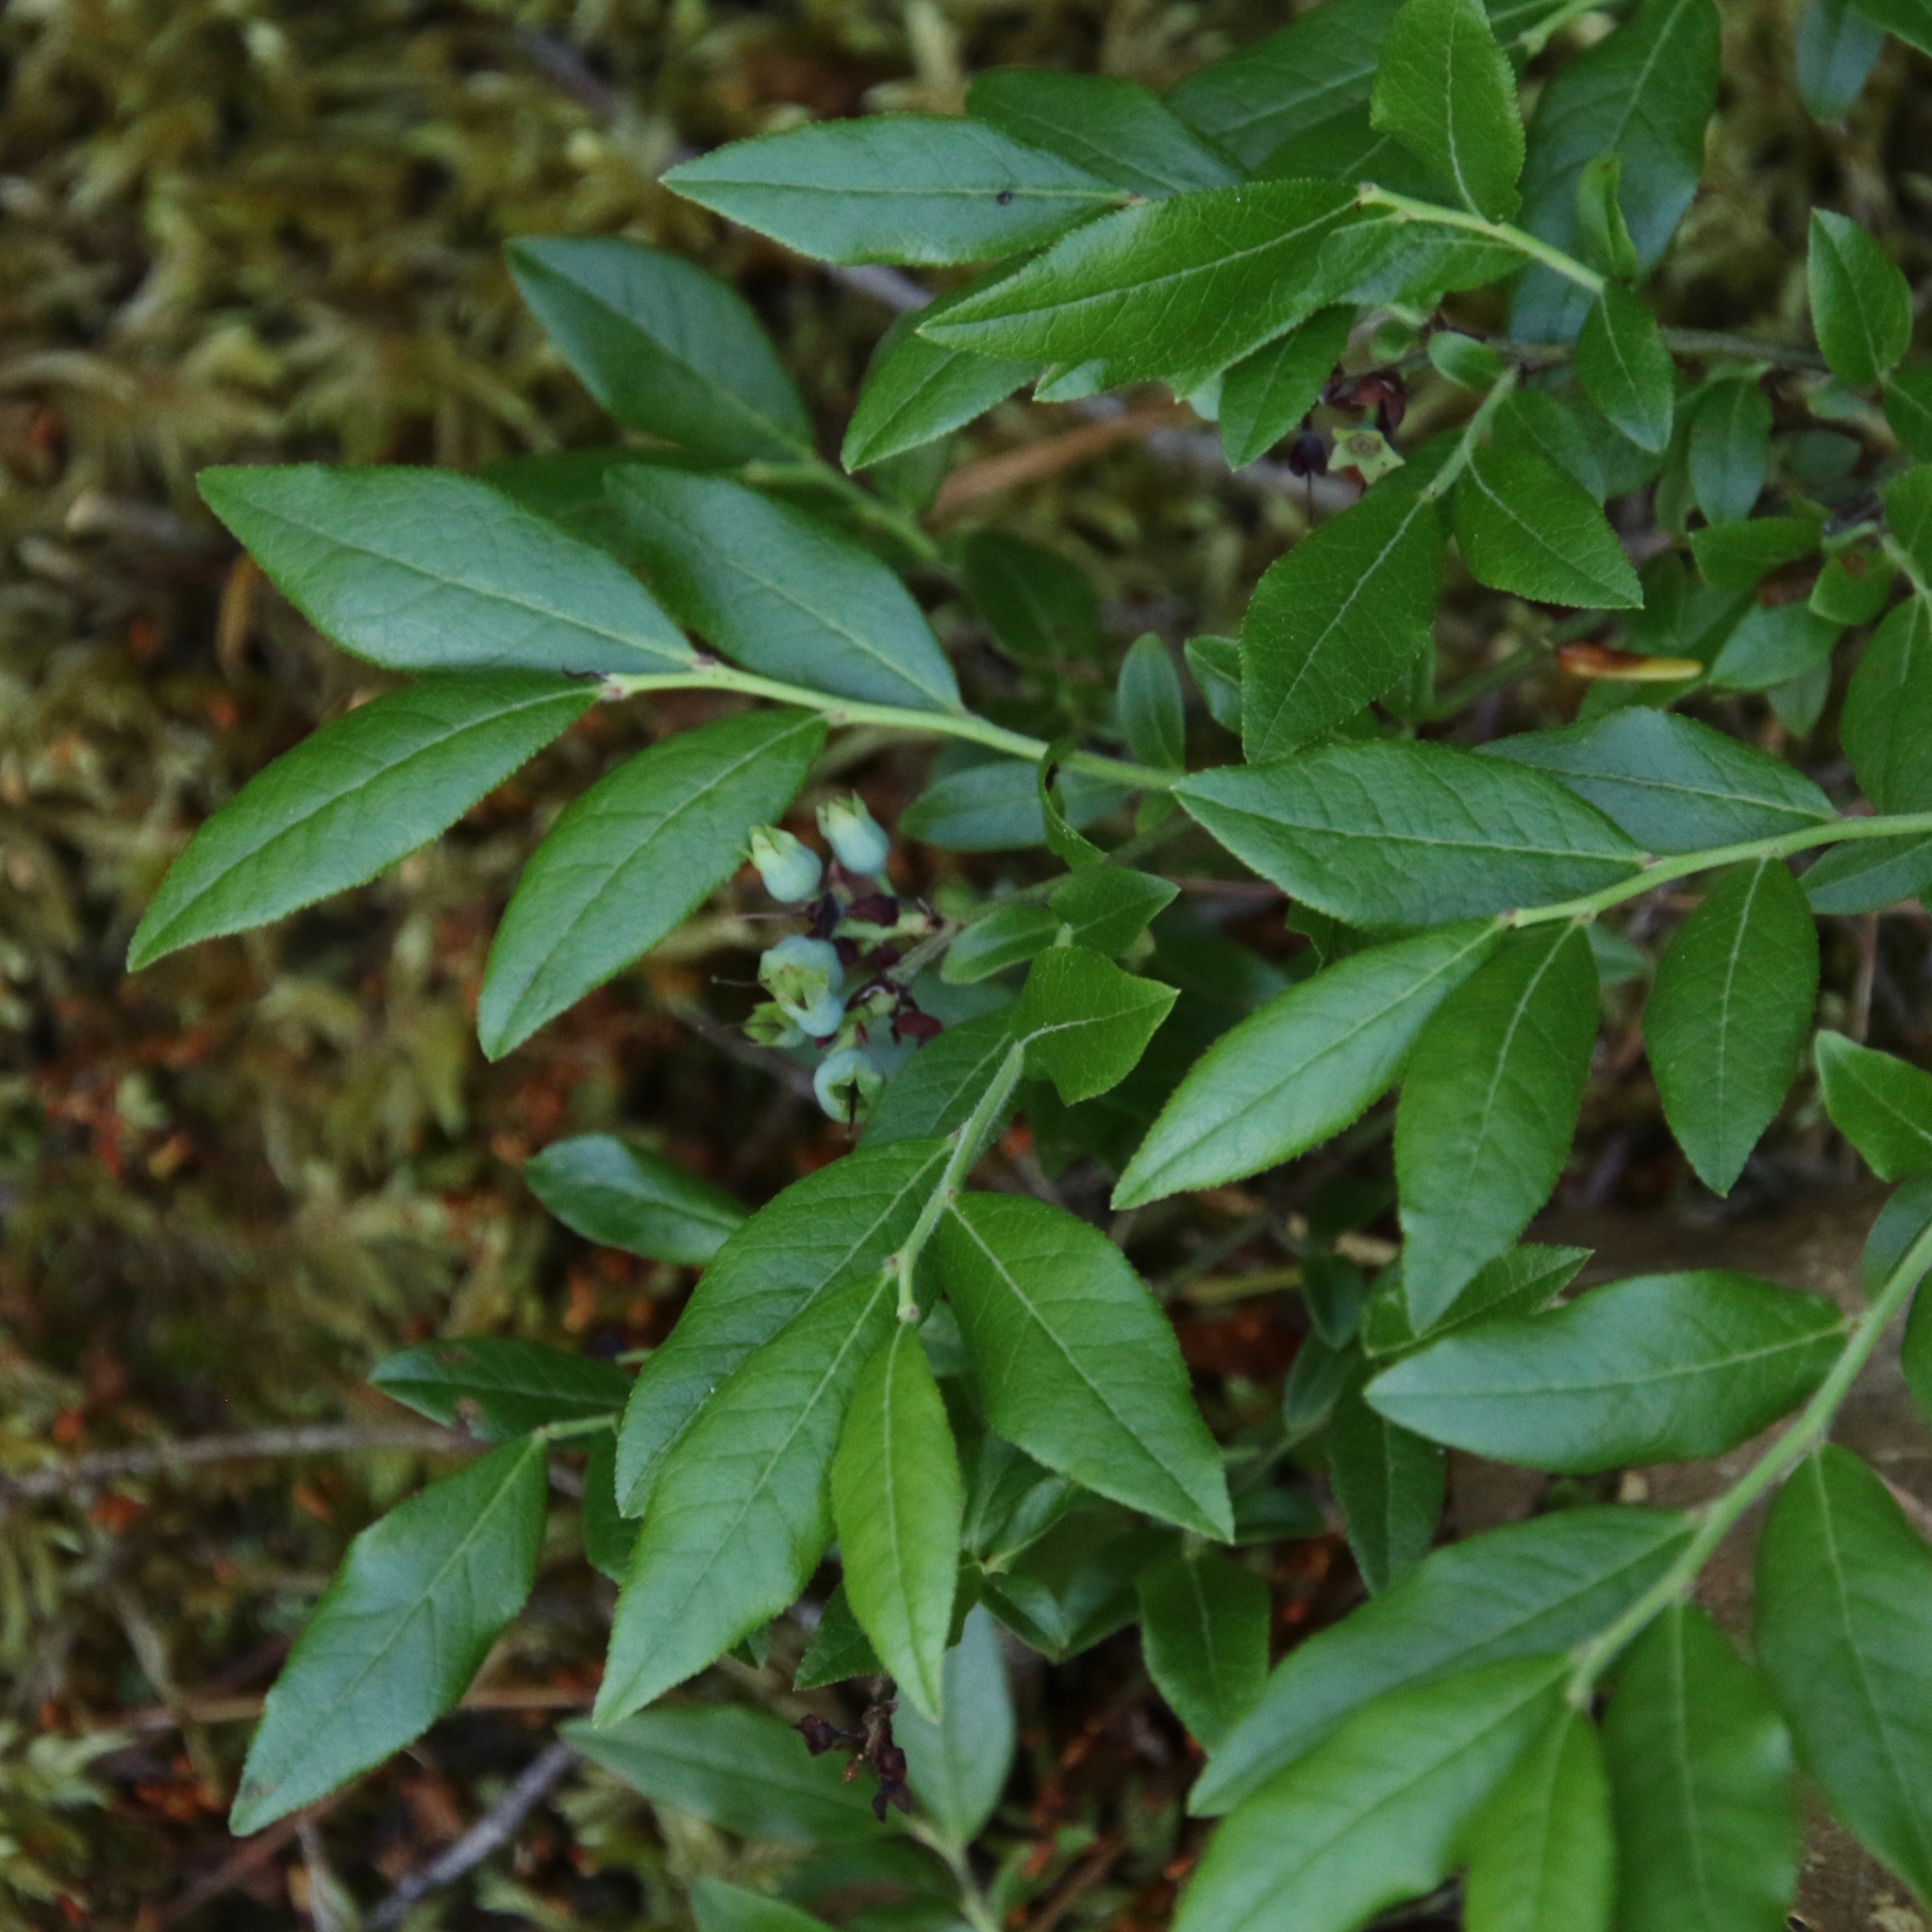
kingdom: Plantae
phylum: Tracheophyta
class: Magnoliopsida
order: Ericales
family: Ericaceae
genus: Vaccinium
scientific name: Vaccinium myrtilloides
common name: Canada blueberry
